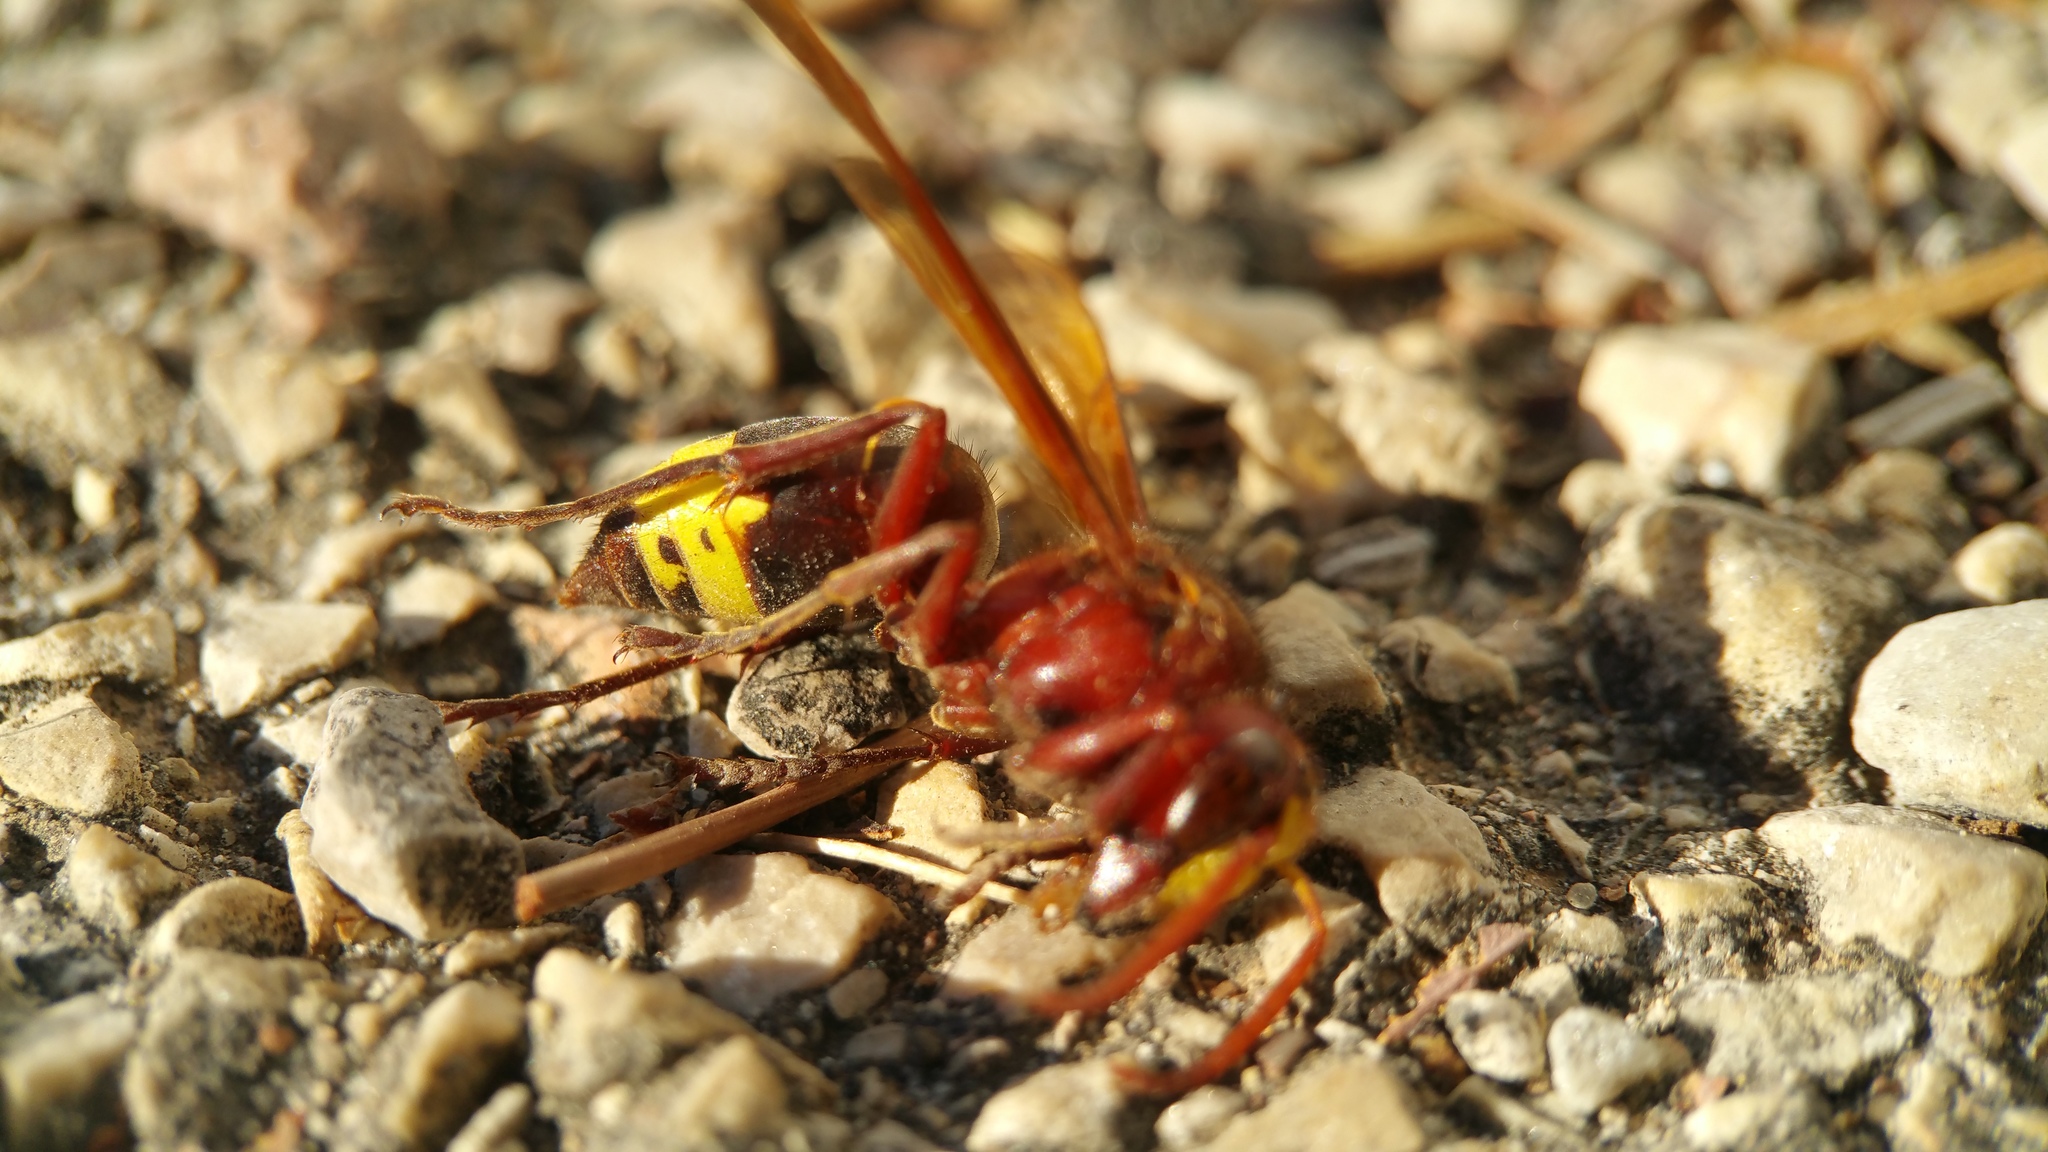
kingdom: Animalia
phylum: Arthropoda
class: Insecta
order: Hymenoptera
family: Vespidae
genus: Vespa
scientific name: Vespa orientalis
